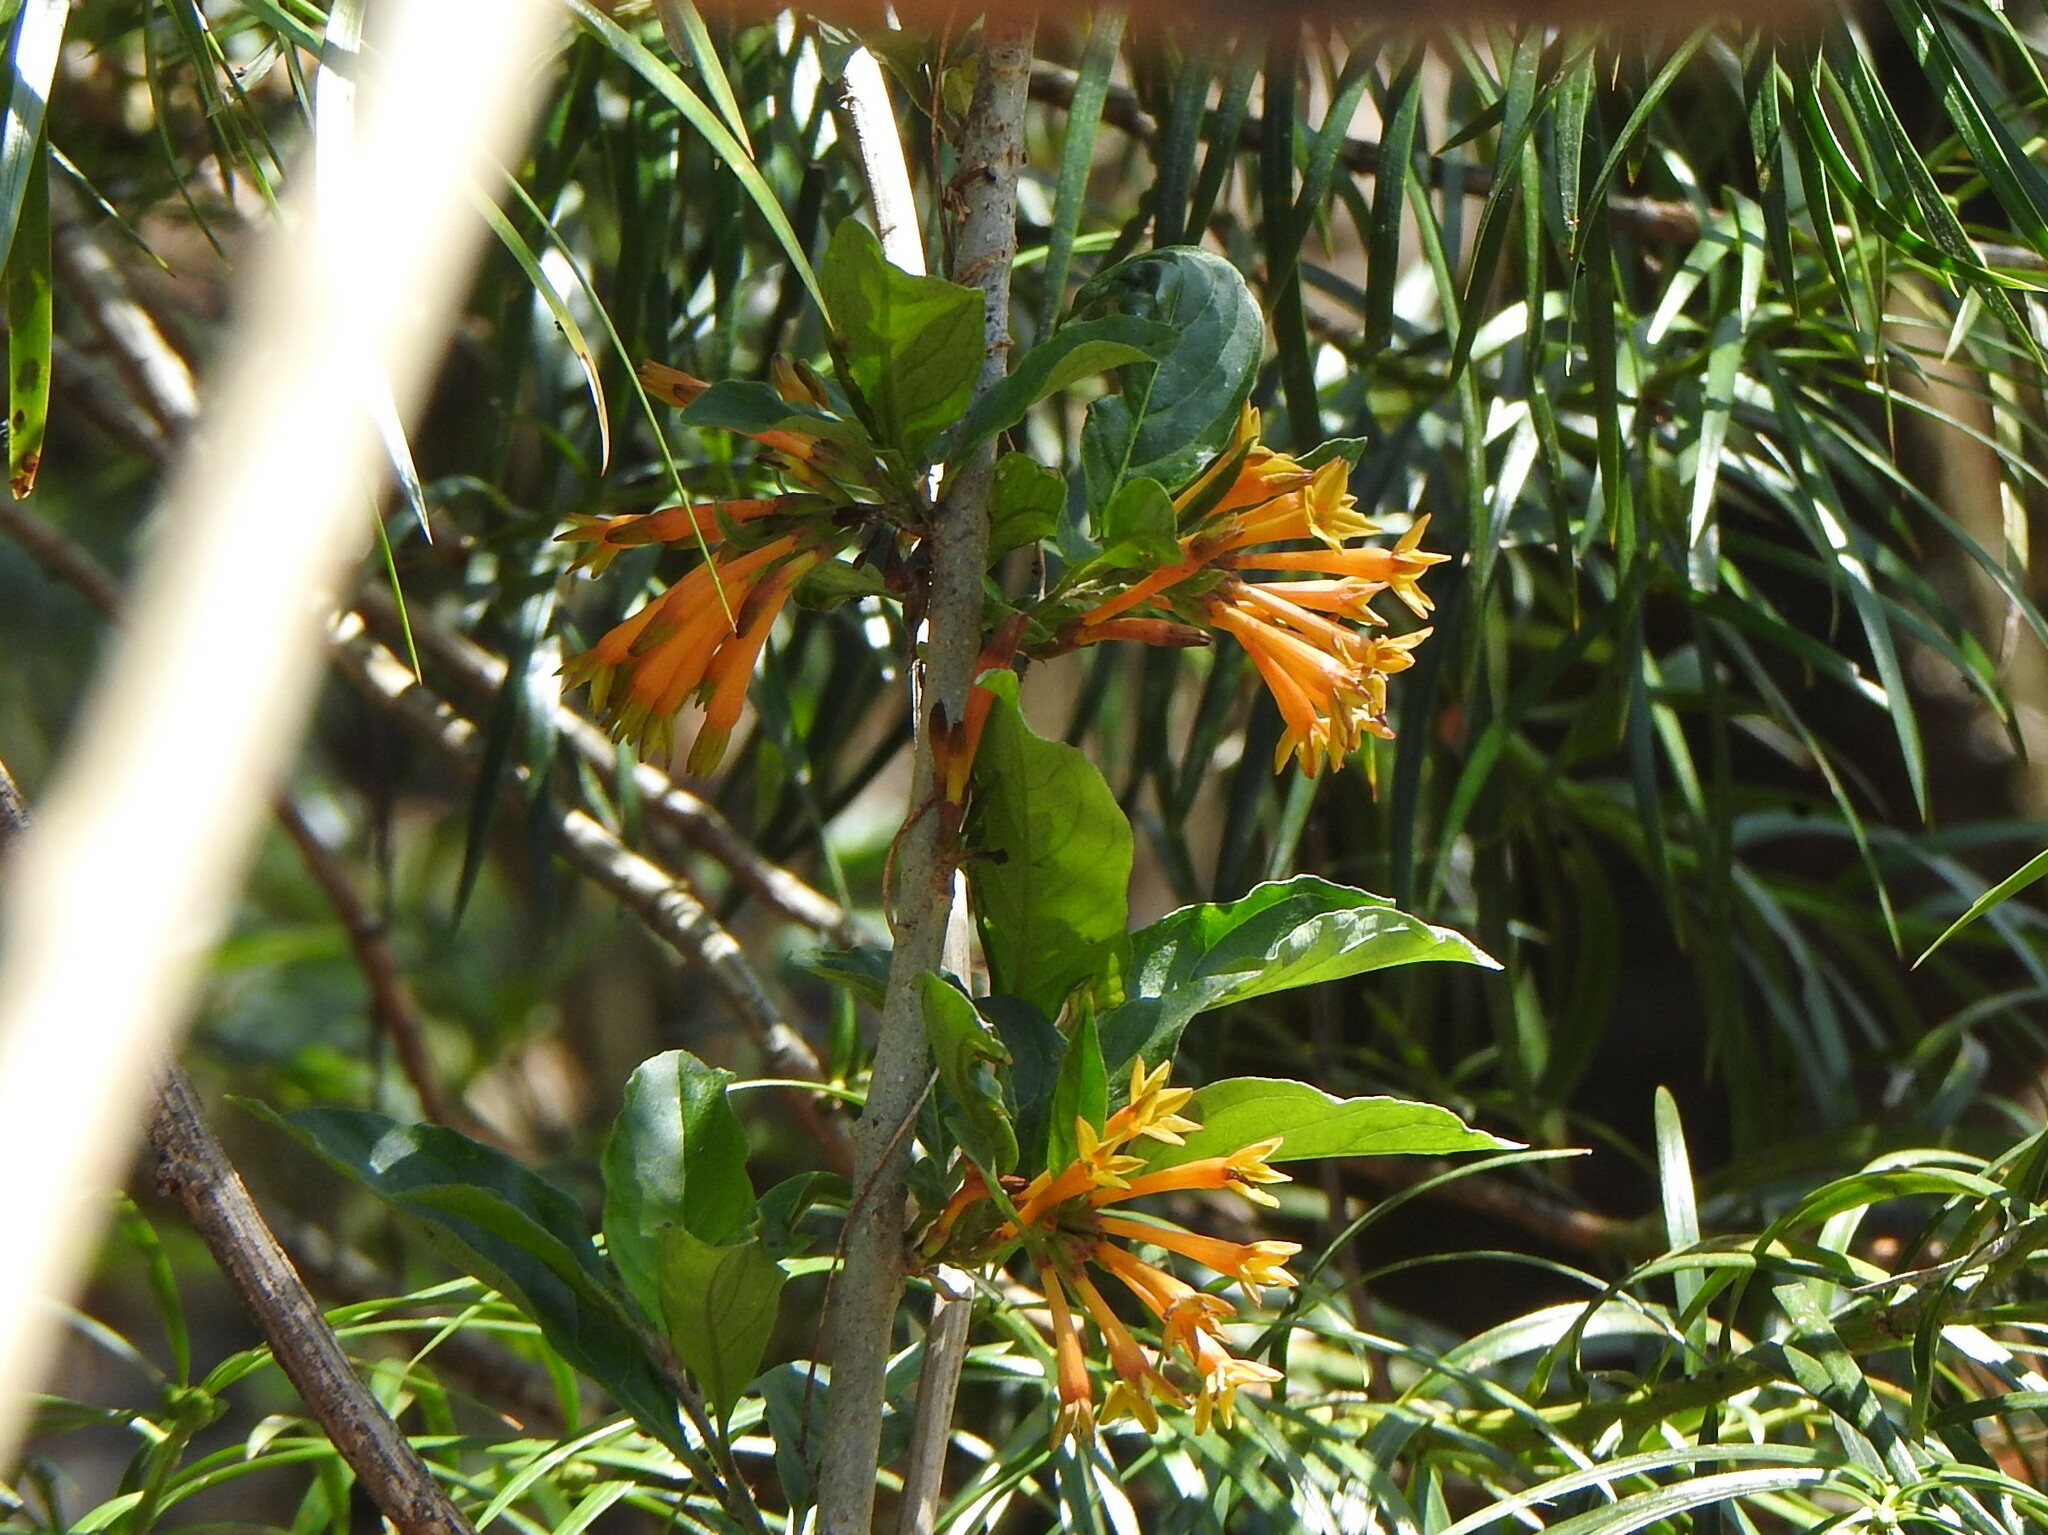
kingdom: Plantae
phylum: Tracheophyta
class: Magnoliopsida
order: Solanales
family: Solanaceae
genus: Cestrum
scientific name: Cestrum parqui
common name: Chilean cestrum
